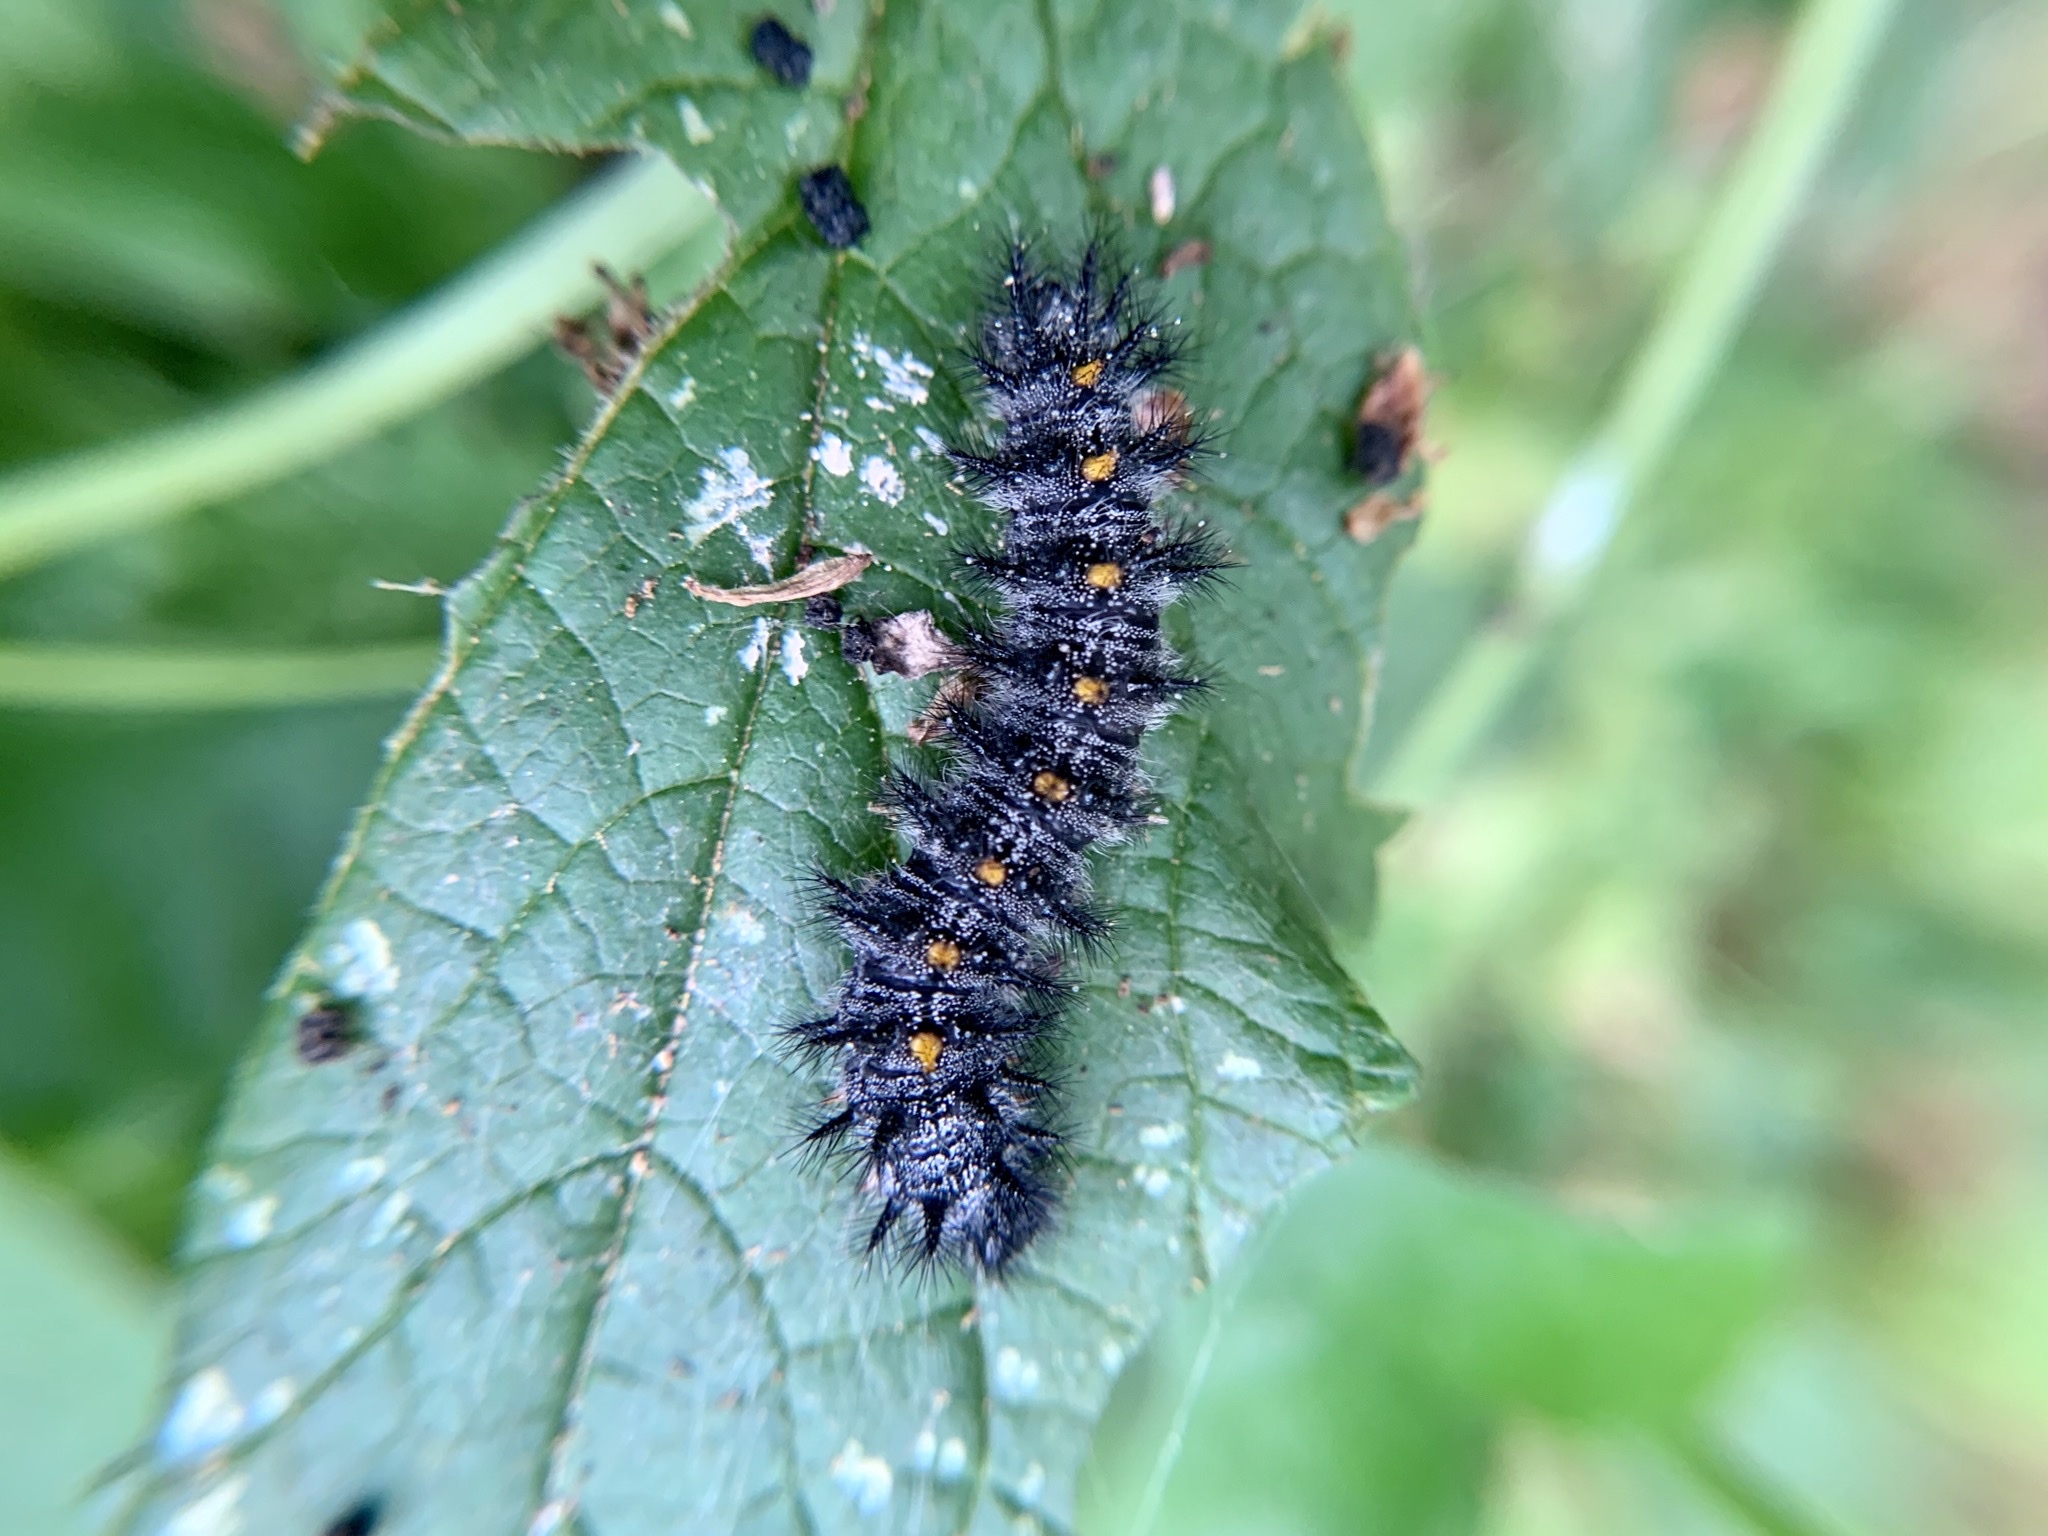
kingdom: Animalia
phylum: Arthropoda
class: Insecta
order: Lepidoptera
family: Nymphalidae
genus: Occidryas
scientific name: Occidryas chalcedona
